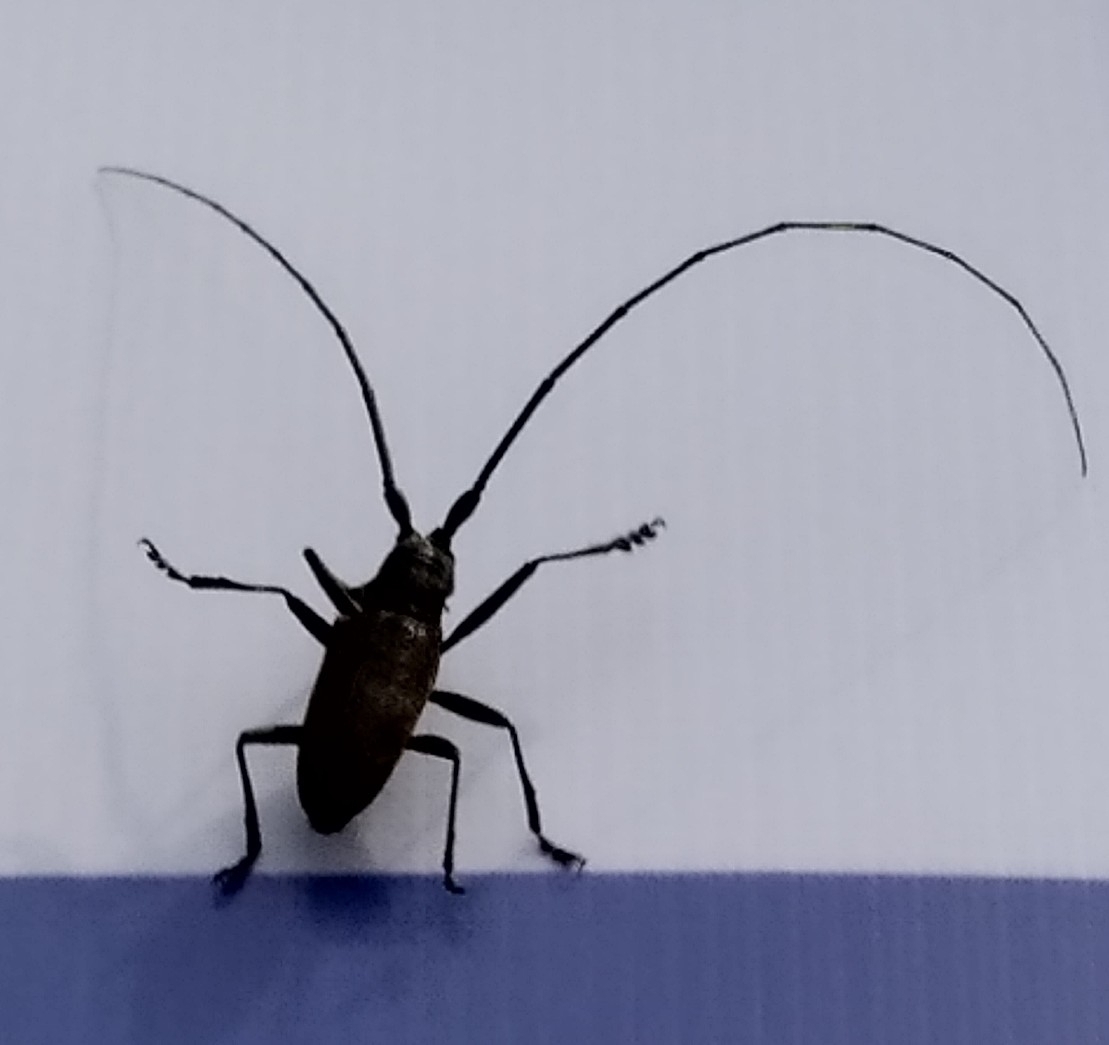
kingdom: Animalia
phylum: Arthropoda
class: Insecta
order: Coleoptera
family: Cerambycidae
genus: Monochamus
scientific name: Monochamus sutor
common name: Pine sawyer
